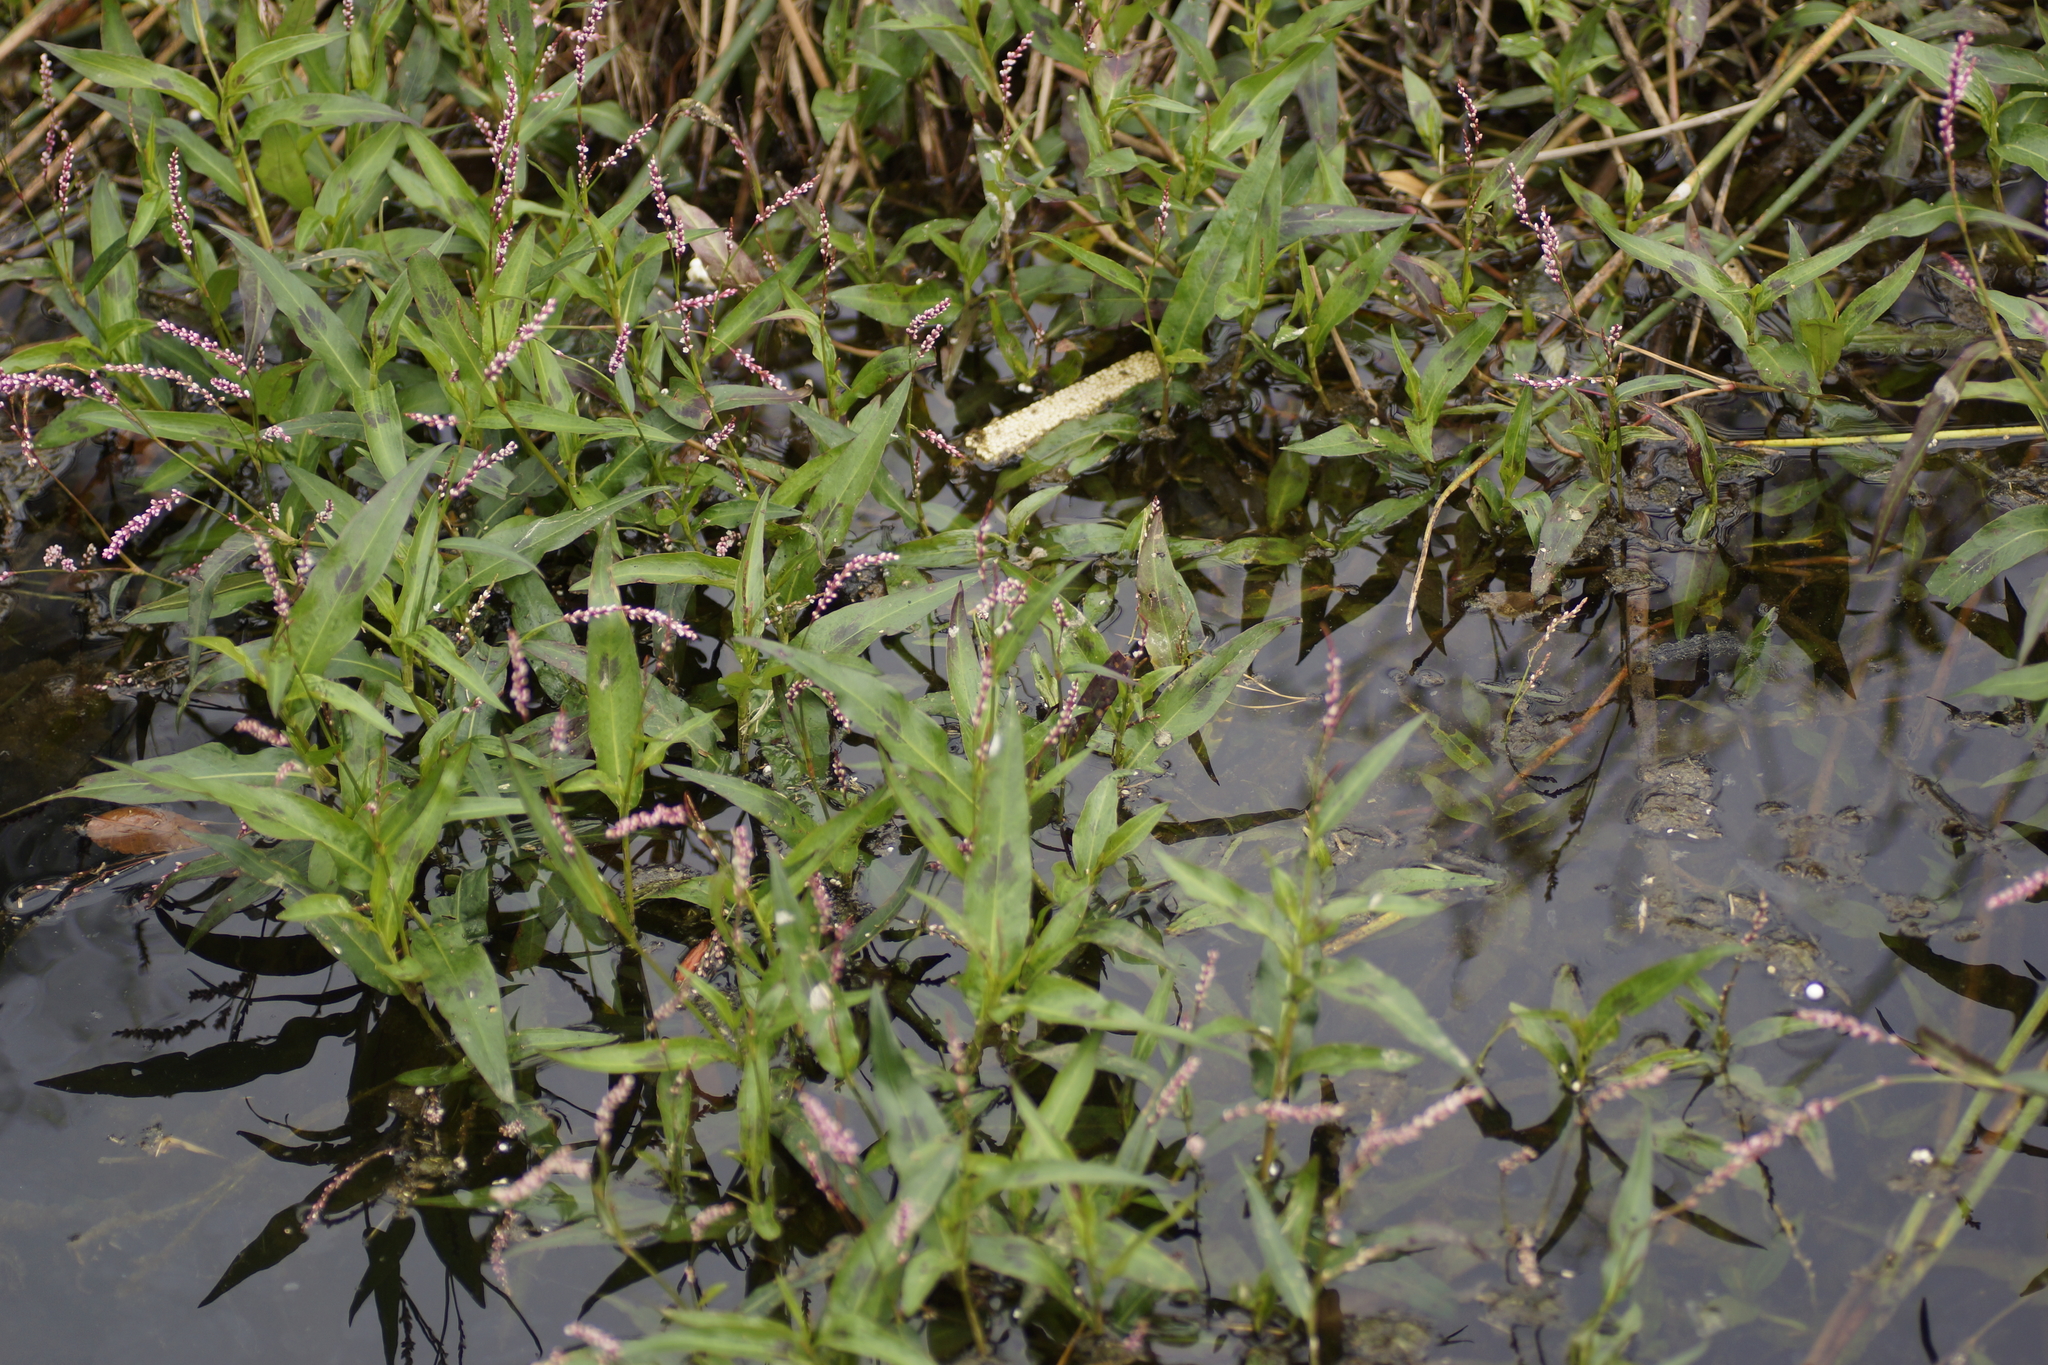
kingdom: Plantae
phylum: Tracheophyta
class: Magnoliopsida
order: Caryophyllales
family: Polygonaceae
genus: Persicaria
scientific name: Persicaria decipiens
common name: Willow-weed
